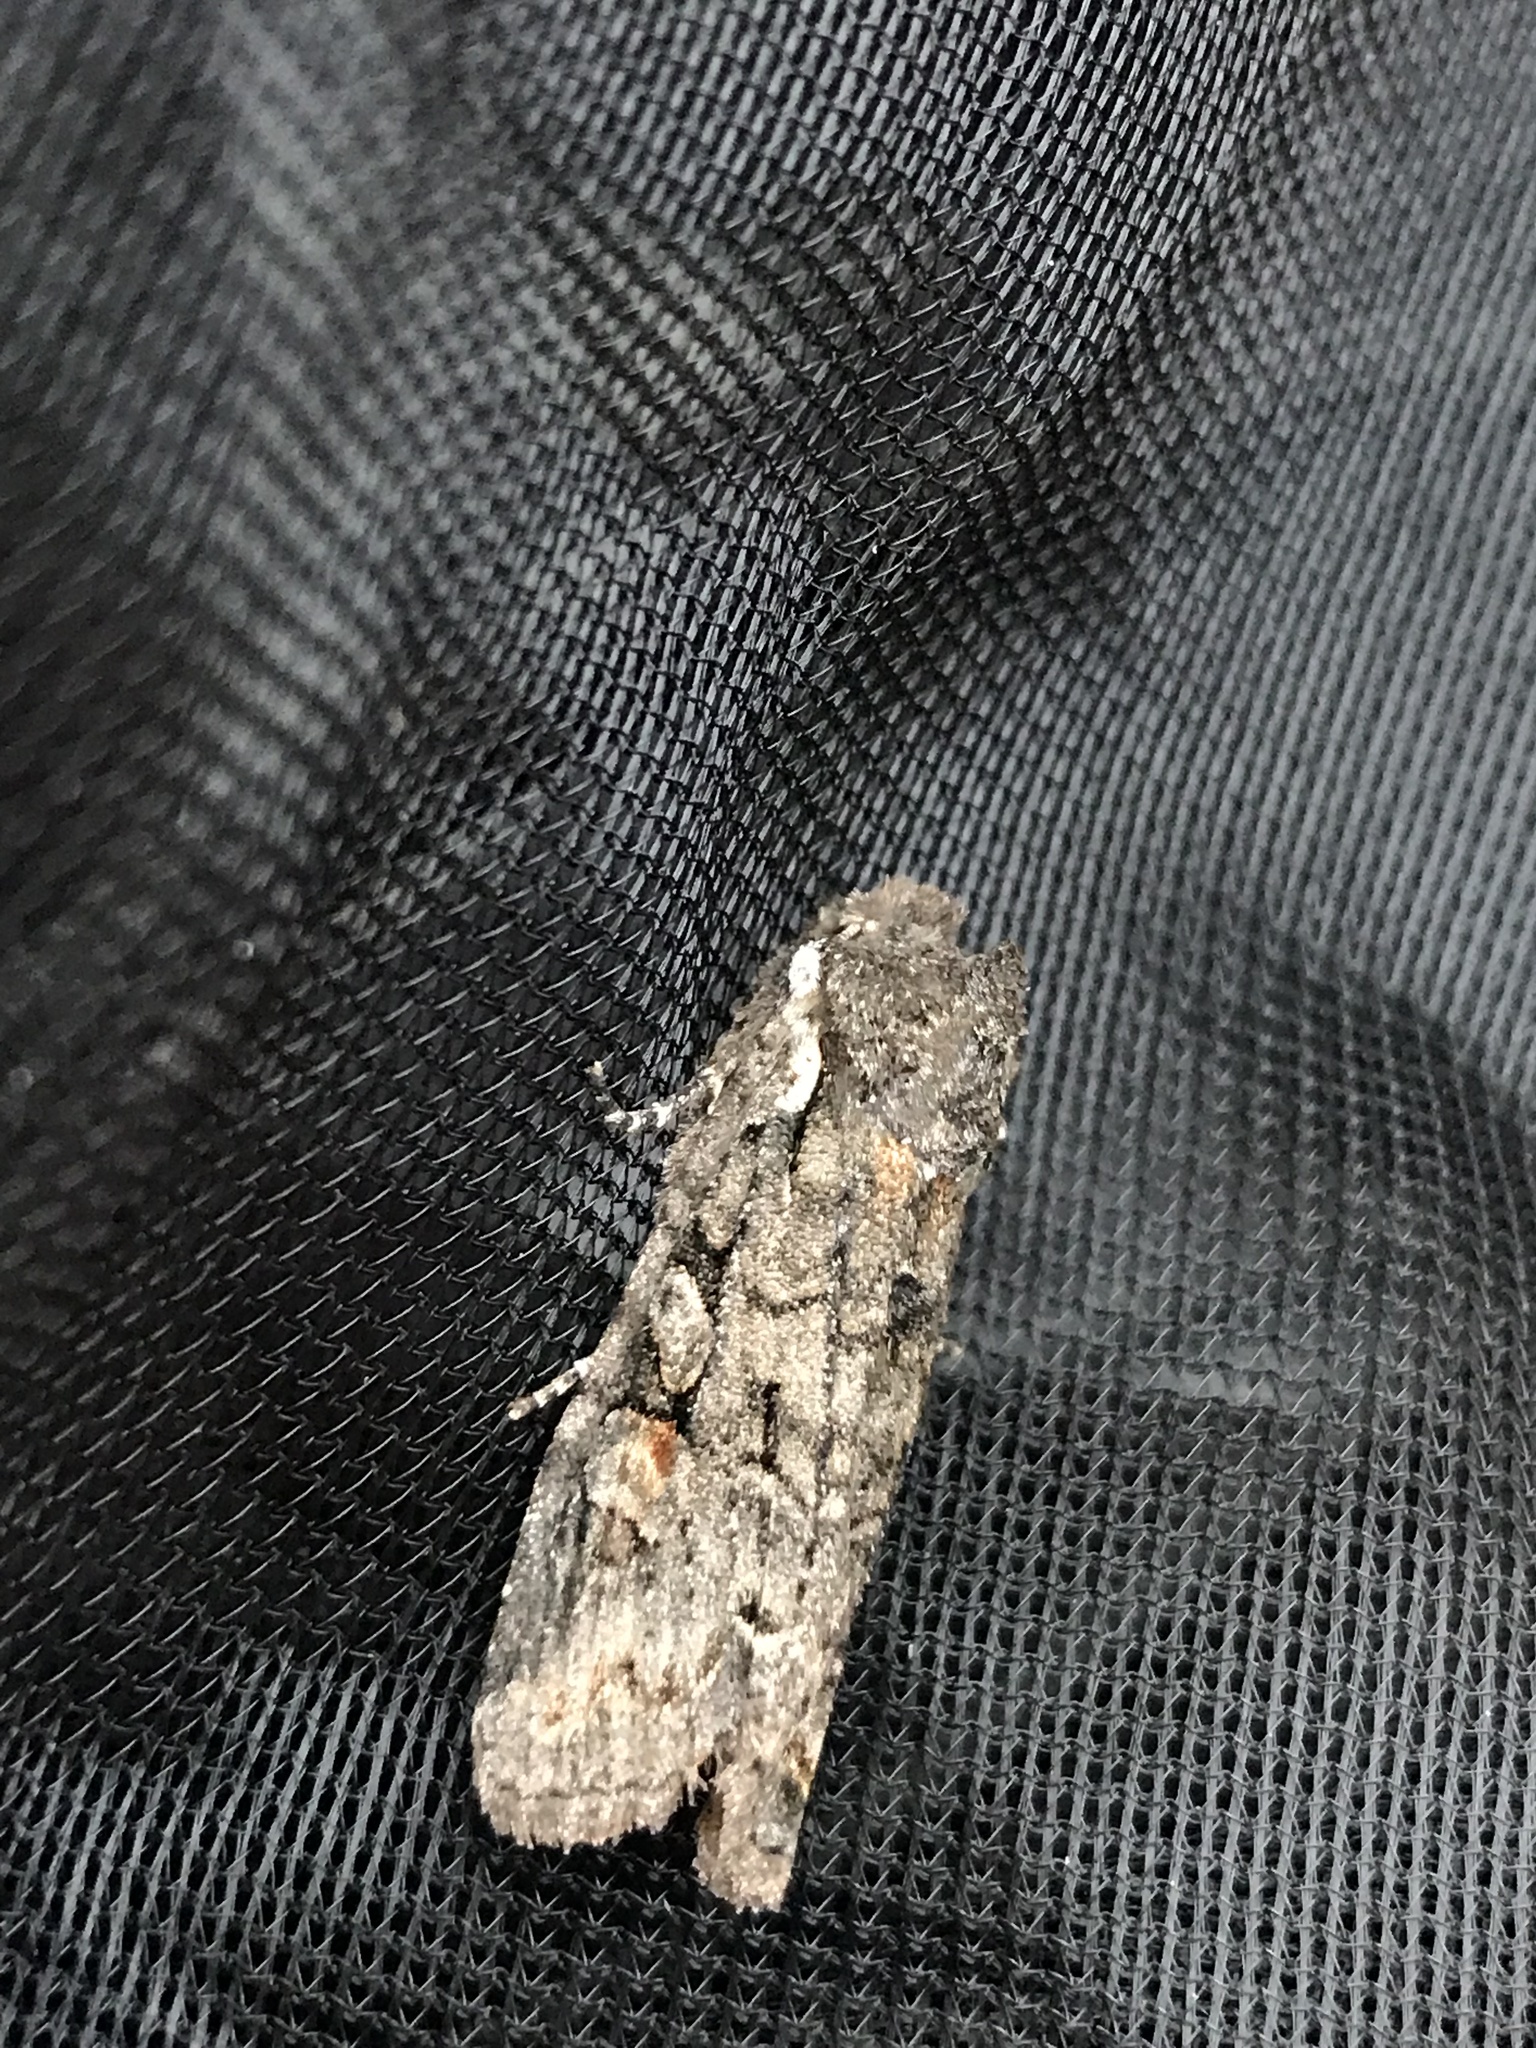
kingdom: Animalia
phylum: Arthropoda
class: Insecta
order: Lepidoptera
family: Noctuidae
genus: Lithophane
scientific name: Lithophane pexata
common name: Plush-naped pinion moth
